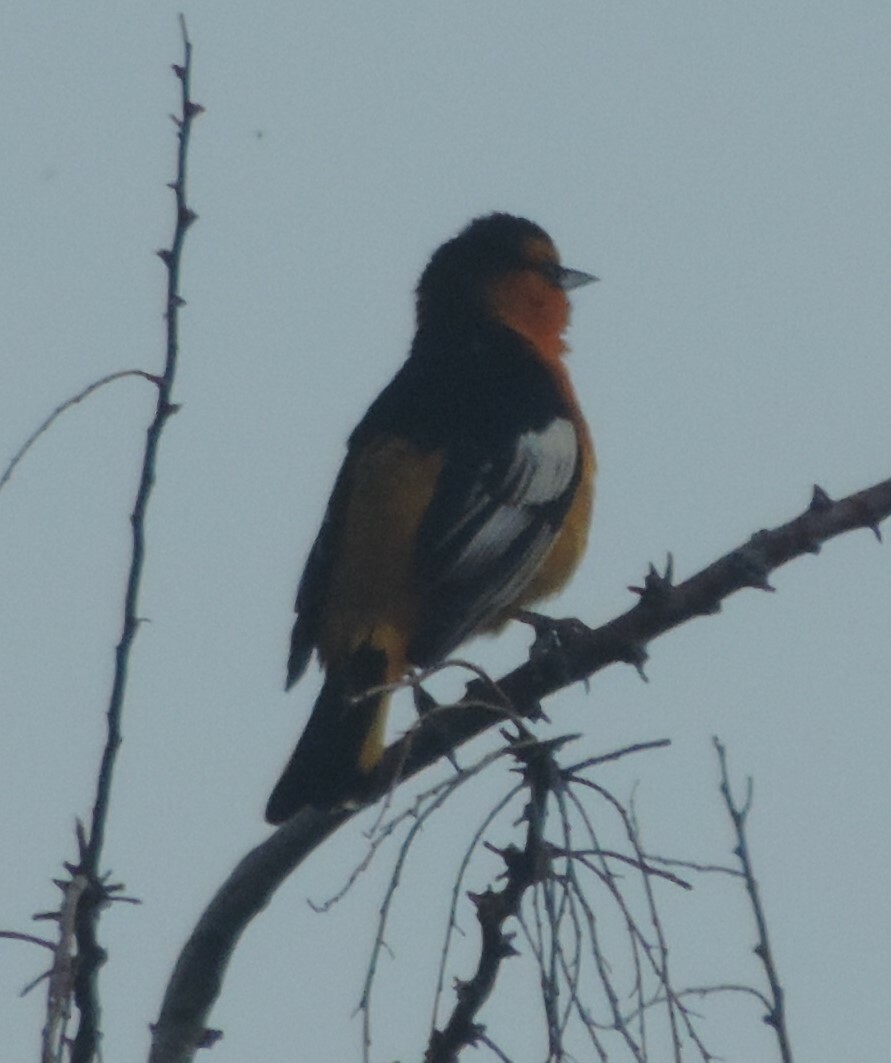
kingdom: Animalia
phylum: Chordata
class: Aves
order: Passeriformes
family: Icteridae
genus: Icterus
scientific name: Icterus bullockii
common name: Bullock's oriole
